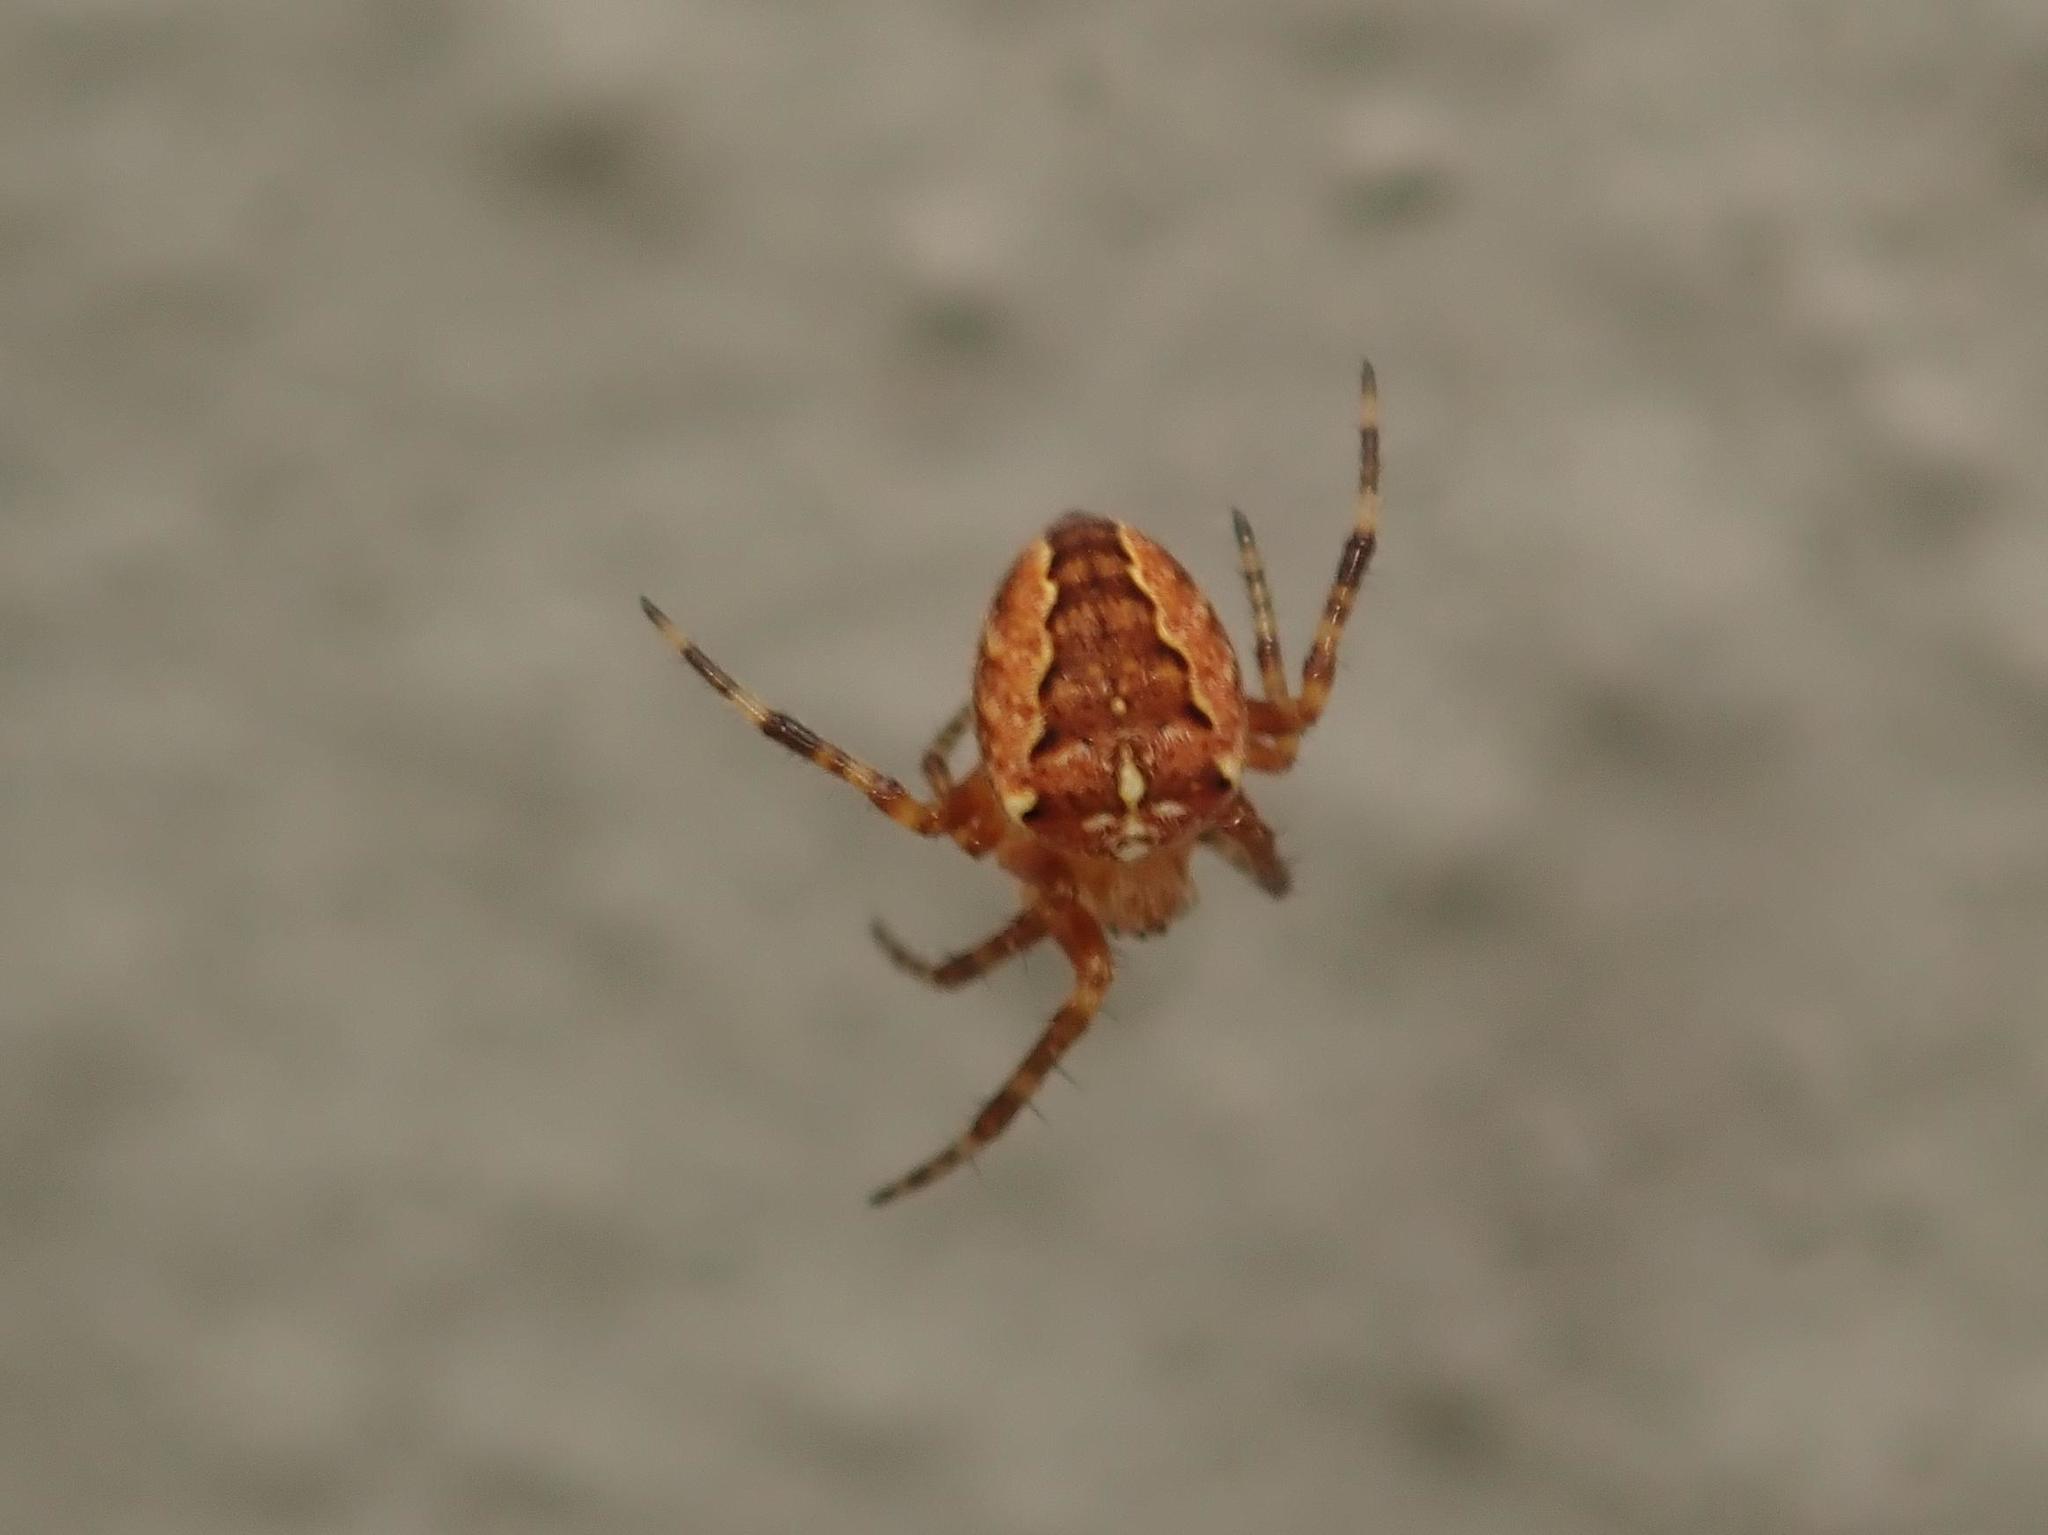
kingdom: Animalia
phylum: Arthropoda
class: Arachnida
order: Araneae
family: Araneidae
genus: Araneus
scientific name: Araneus diadematus
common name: Cross orbweaver
